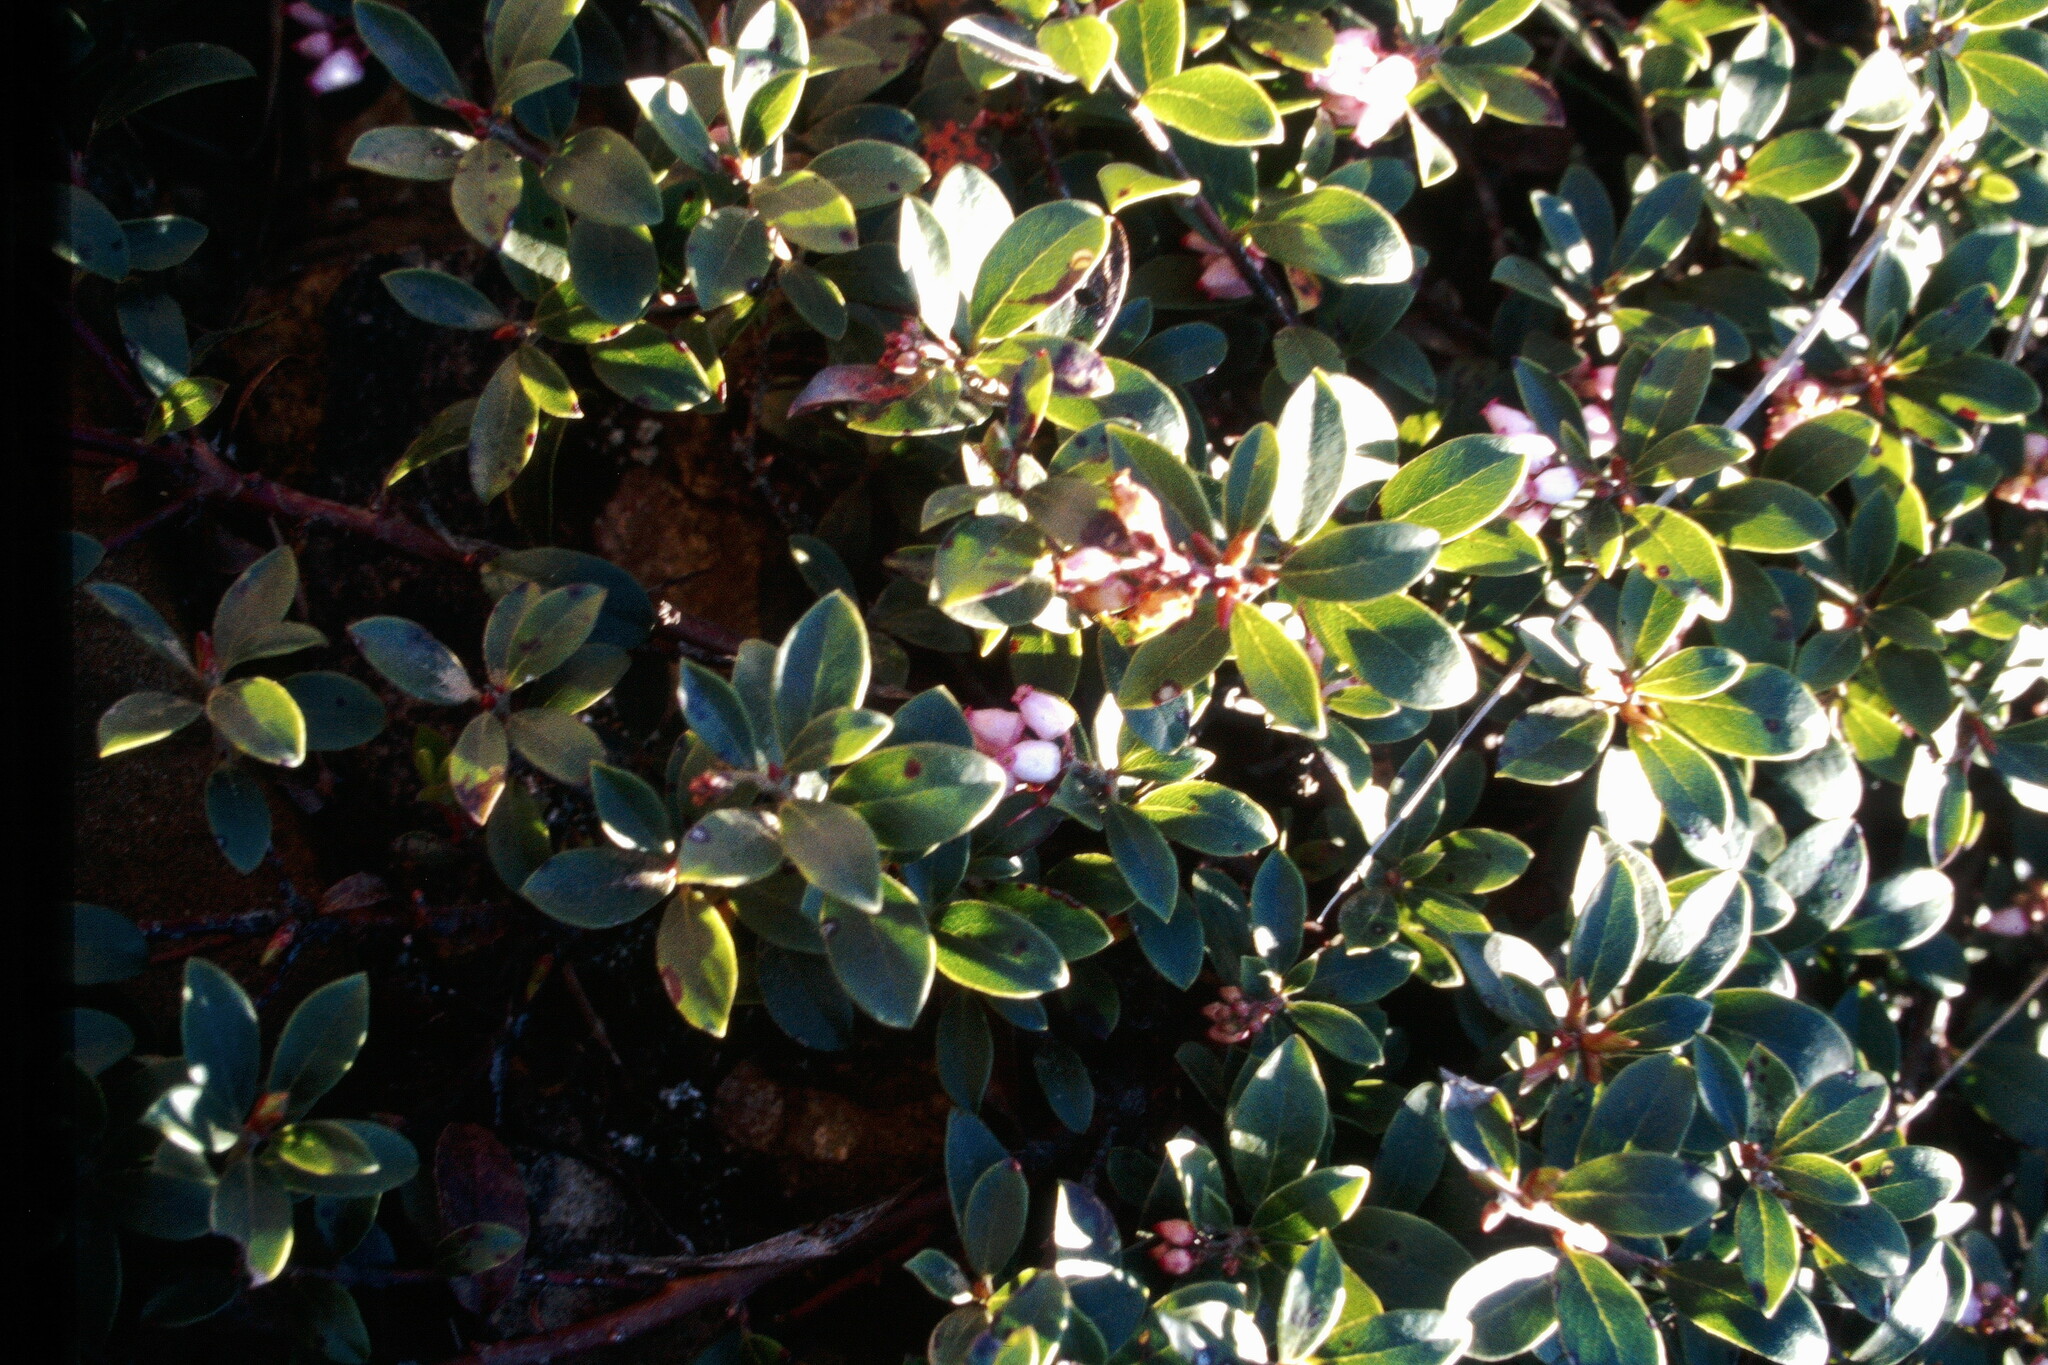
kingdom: Plantae
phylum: Tracheophyta
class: Magnoliopsida
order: Ericales
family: Ericaceae
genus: Arctostaphylos
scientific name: Arctostaphylos uva-ursi
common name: Bearberry
